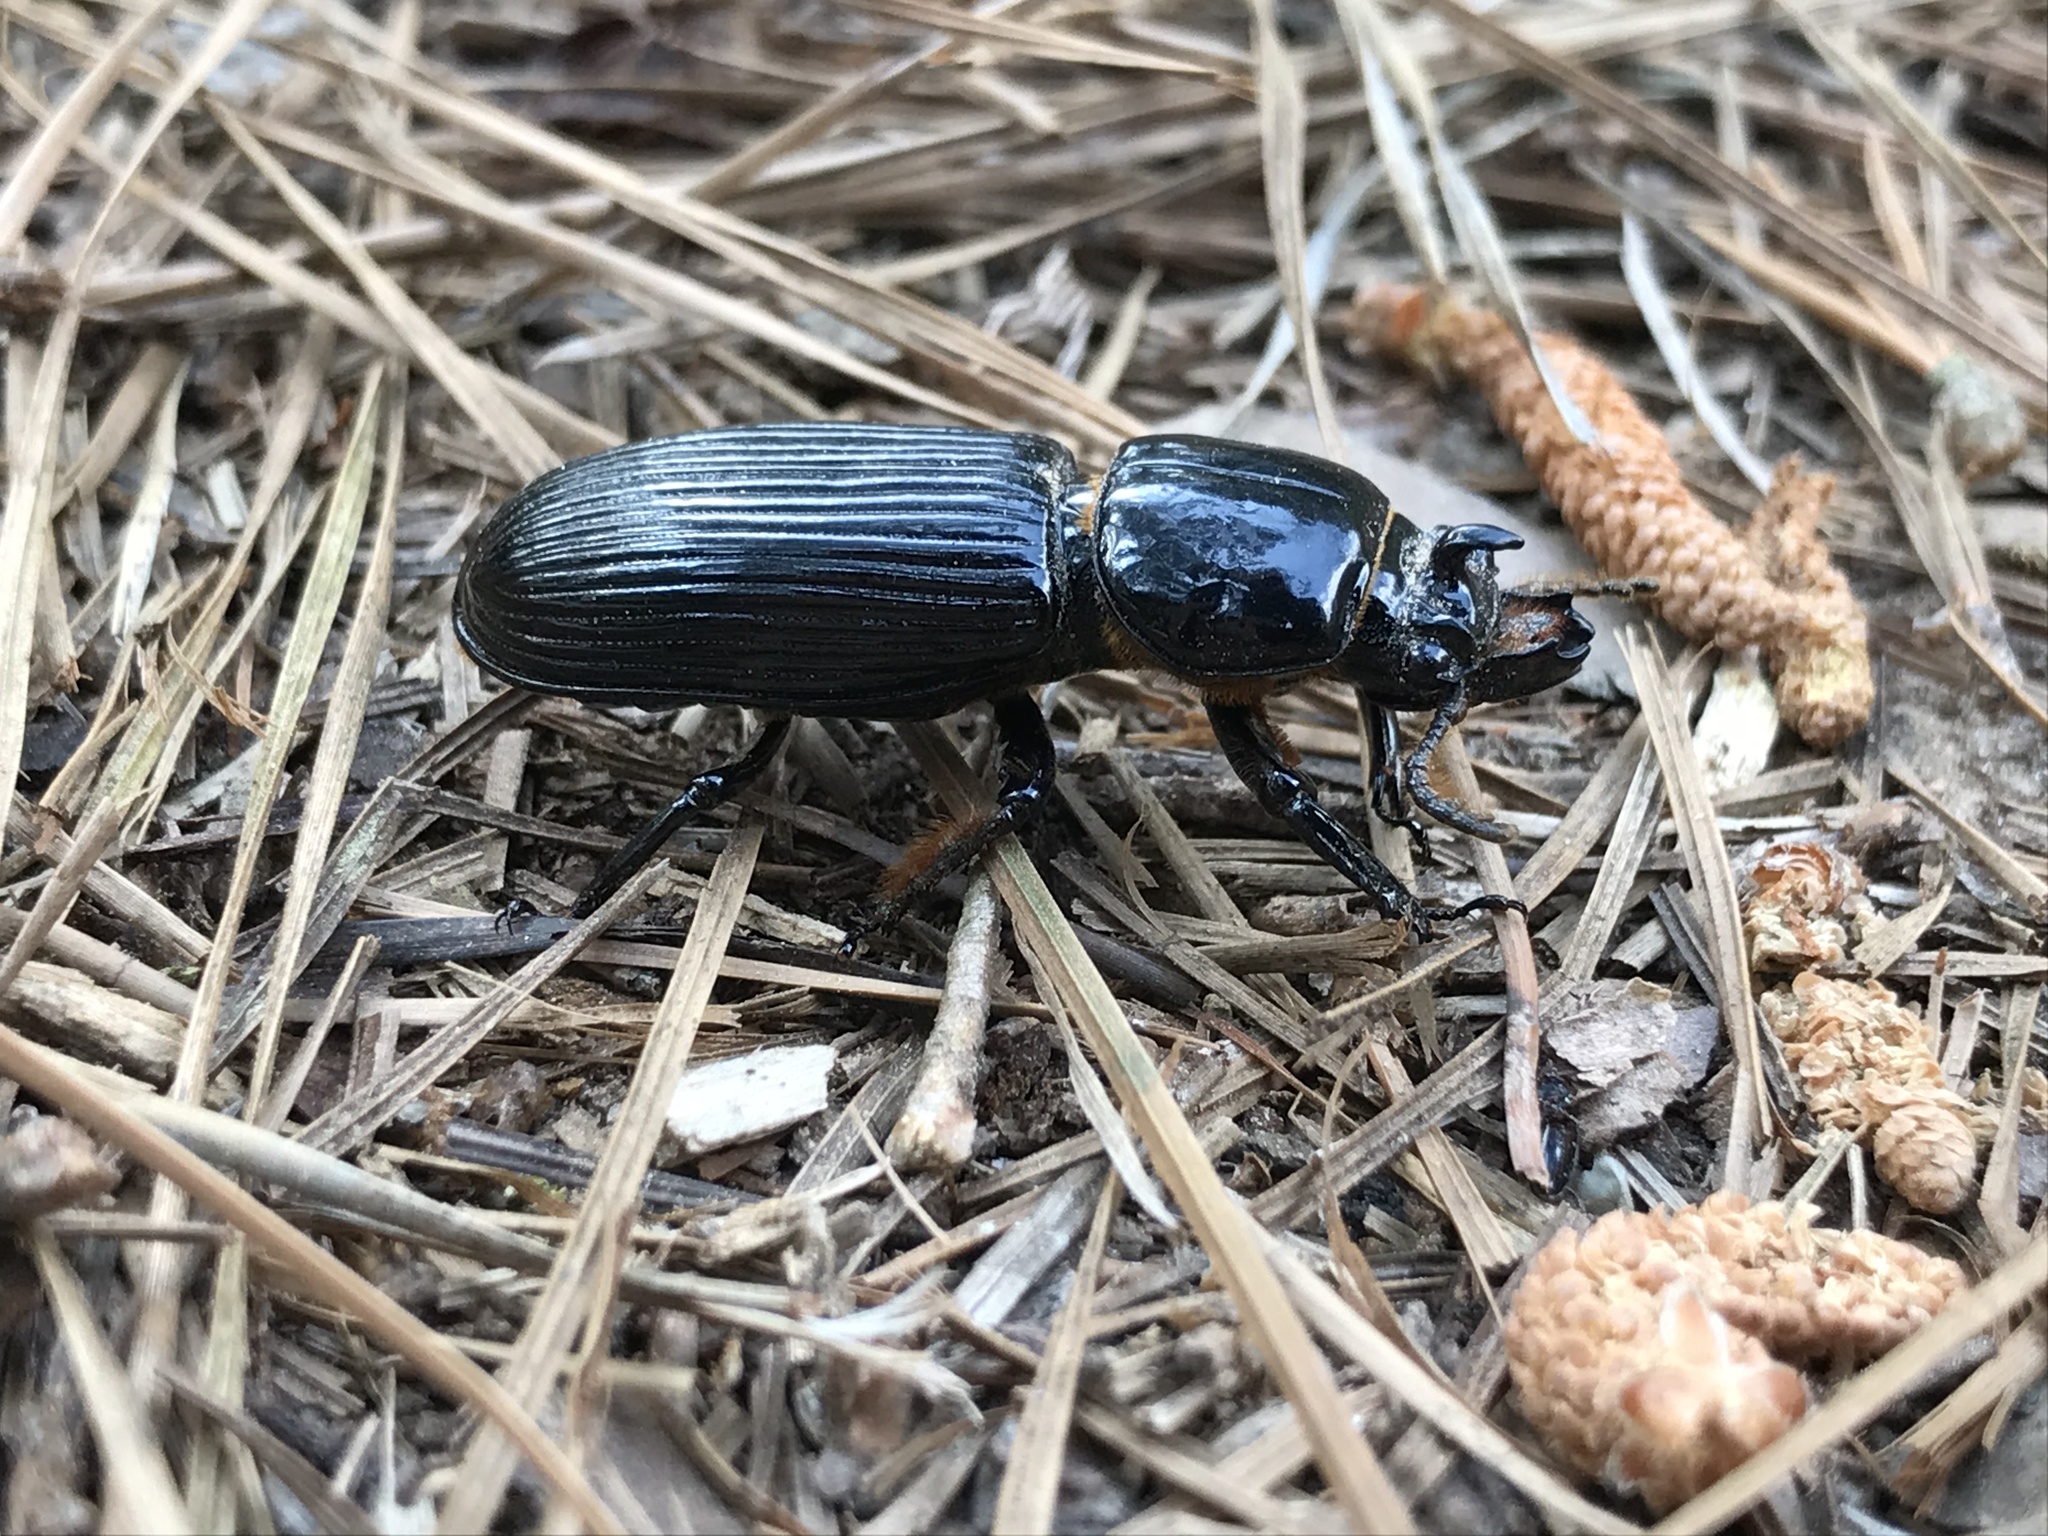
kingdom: Animalia
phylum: Arthropoda
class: Insecta
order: Coleoptera
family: Passalidae
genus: Odontotaenius
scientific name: Odontotaenius disjunctus
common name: Patent leather beetle
